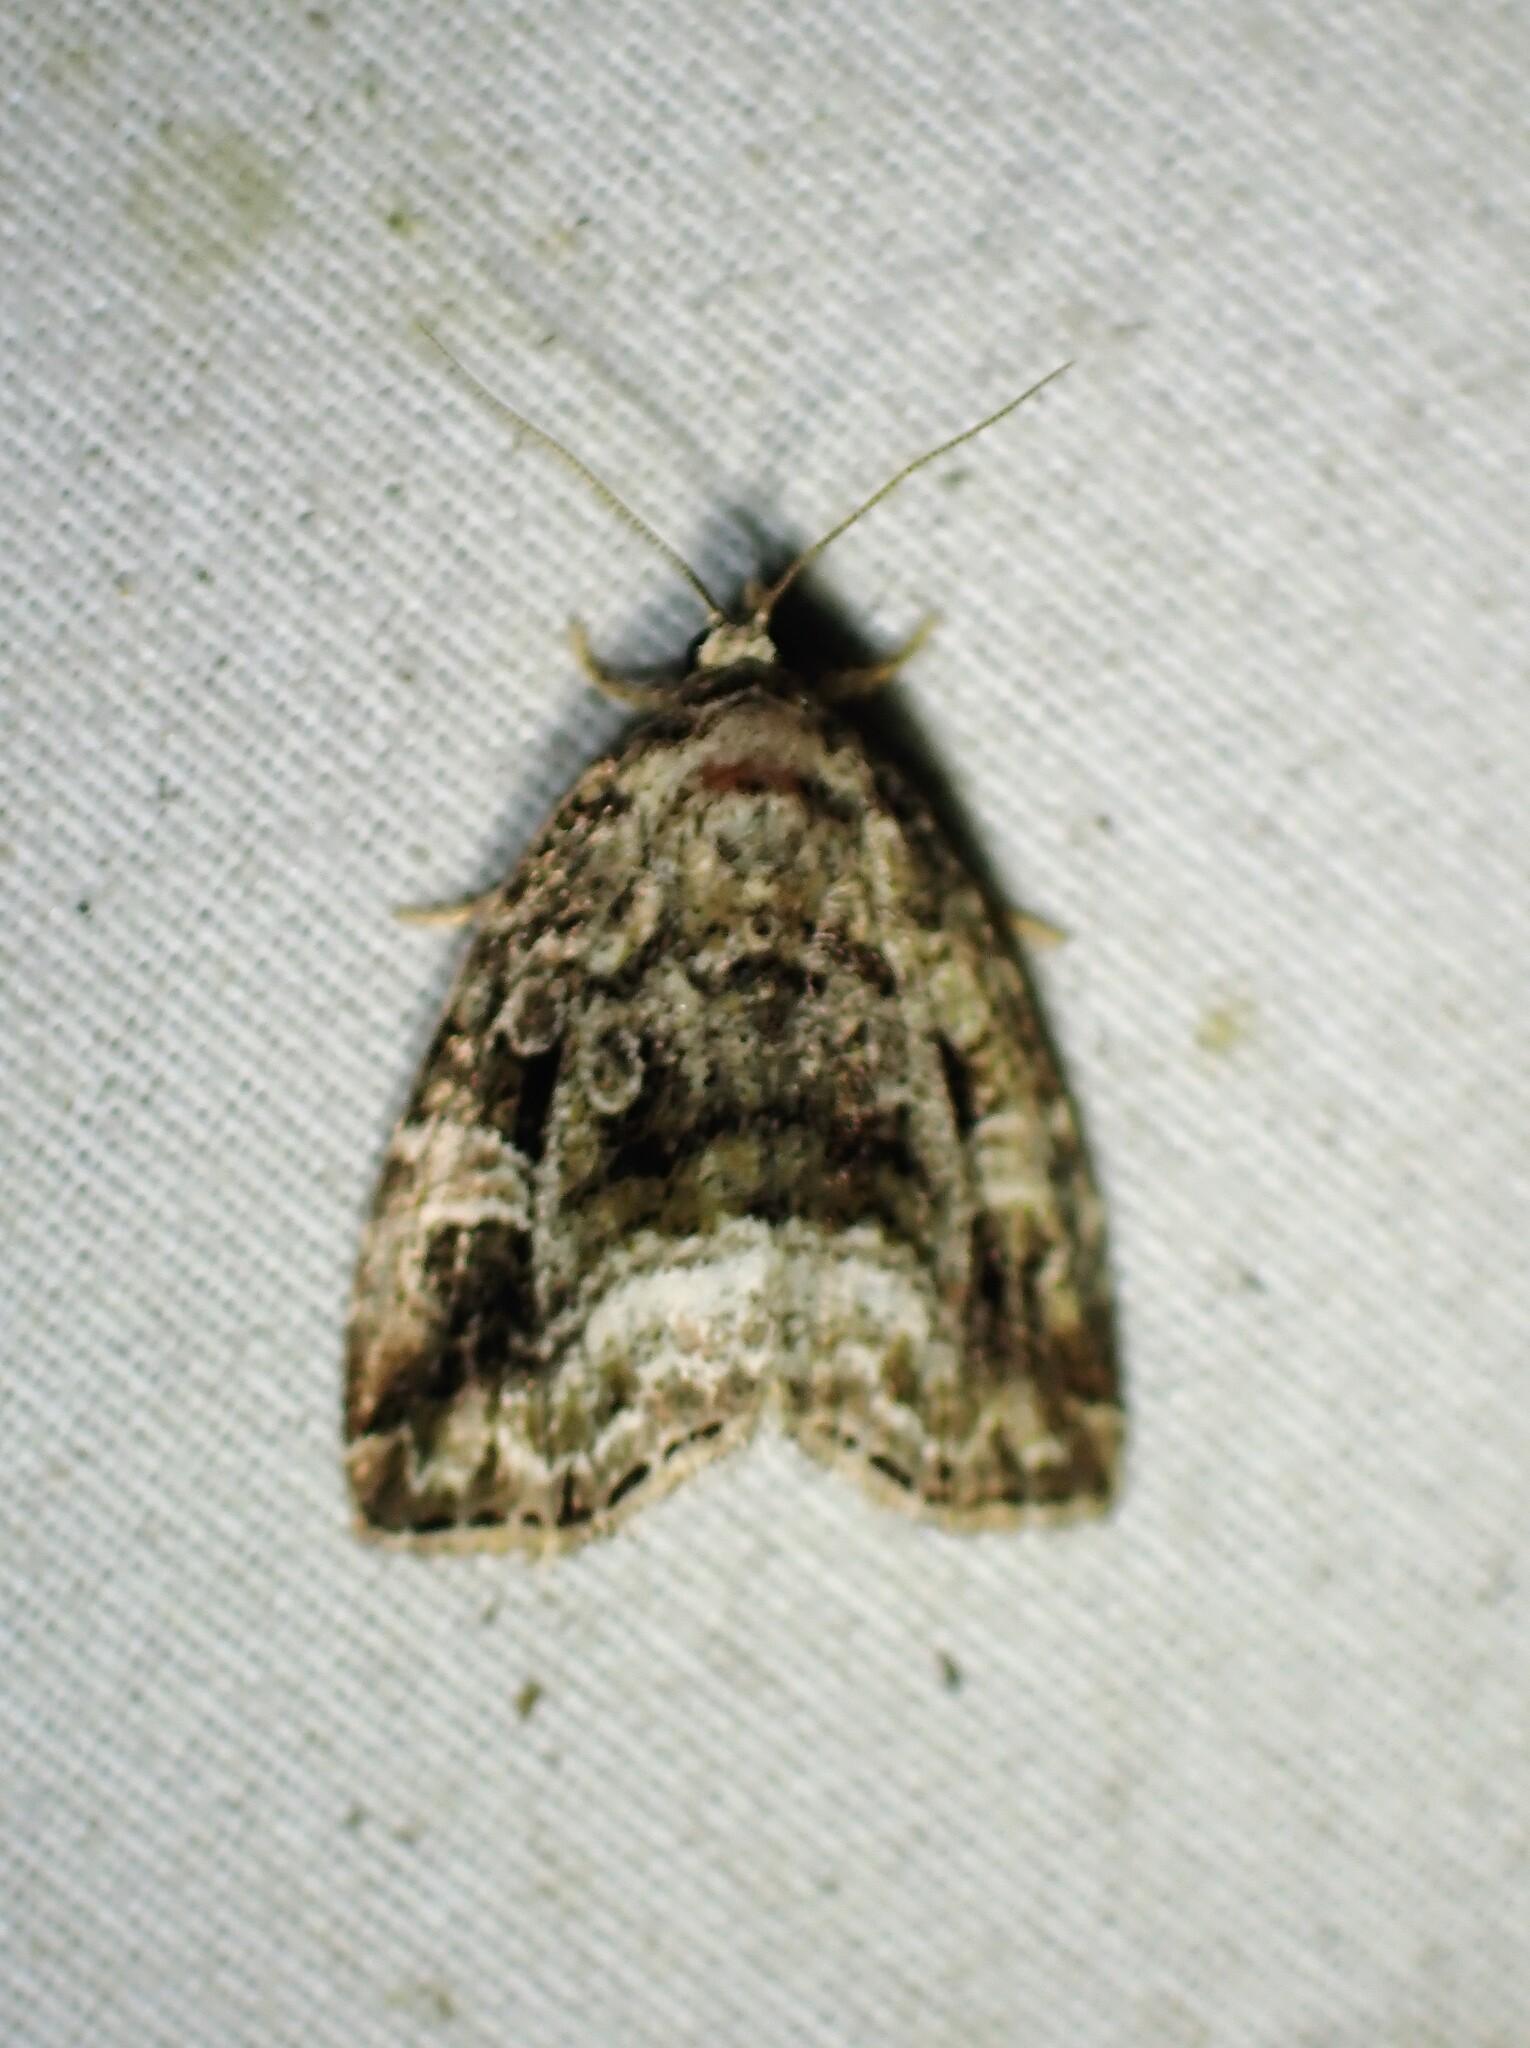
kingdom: Animalia
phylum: Arthropoda
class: Insecta
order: Lepidoptera
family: Noctuidae
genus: Protodeltote
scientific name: Protodeltote muscosula
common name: Large mossy glyph
